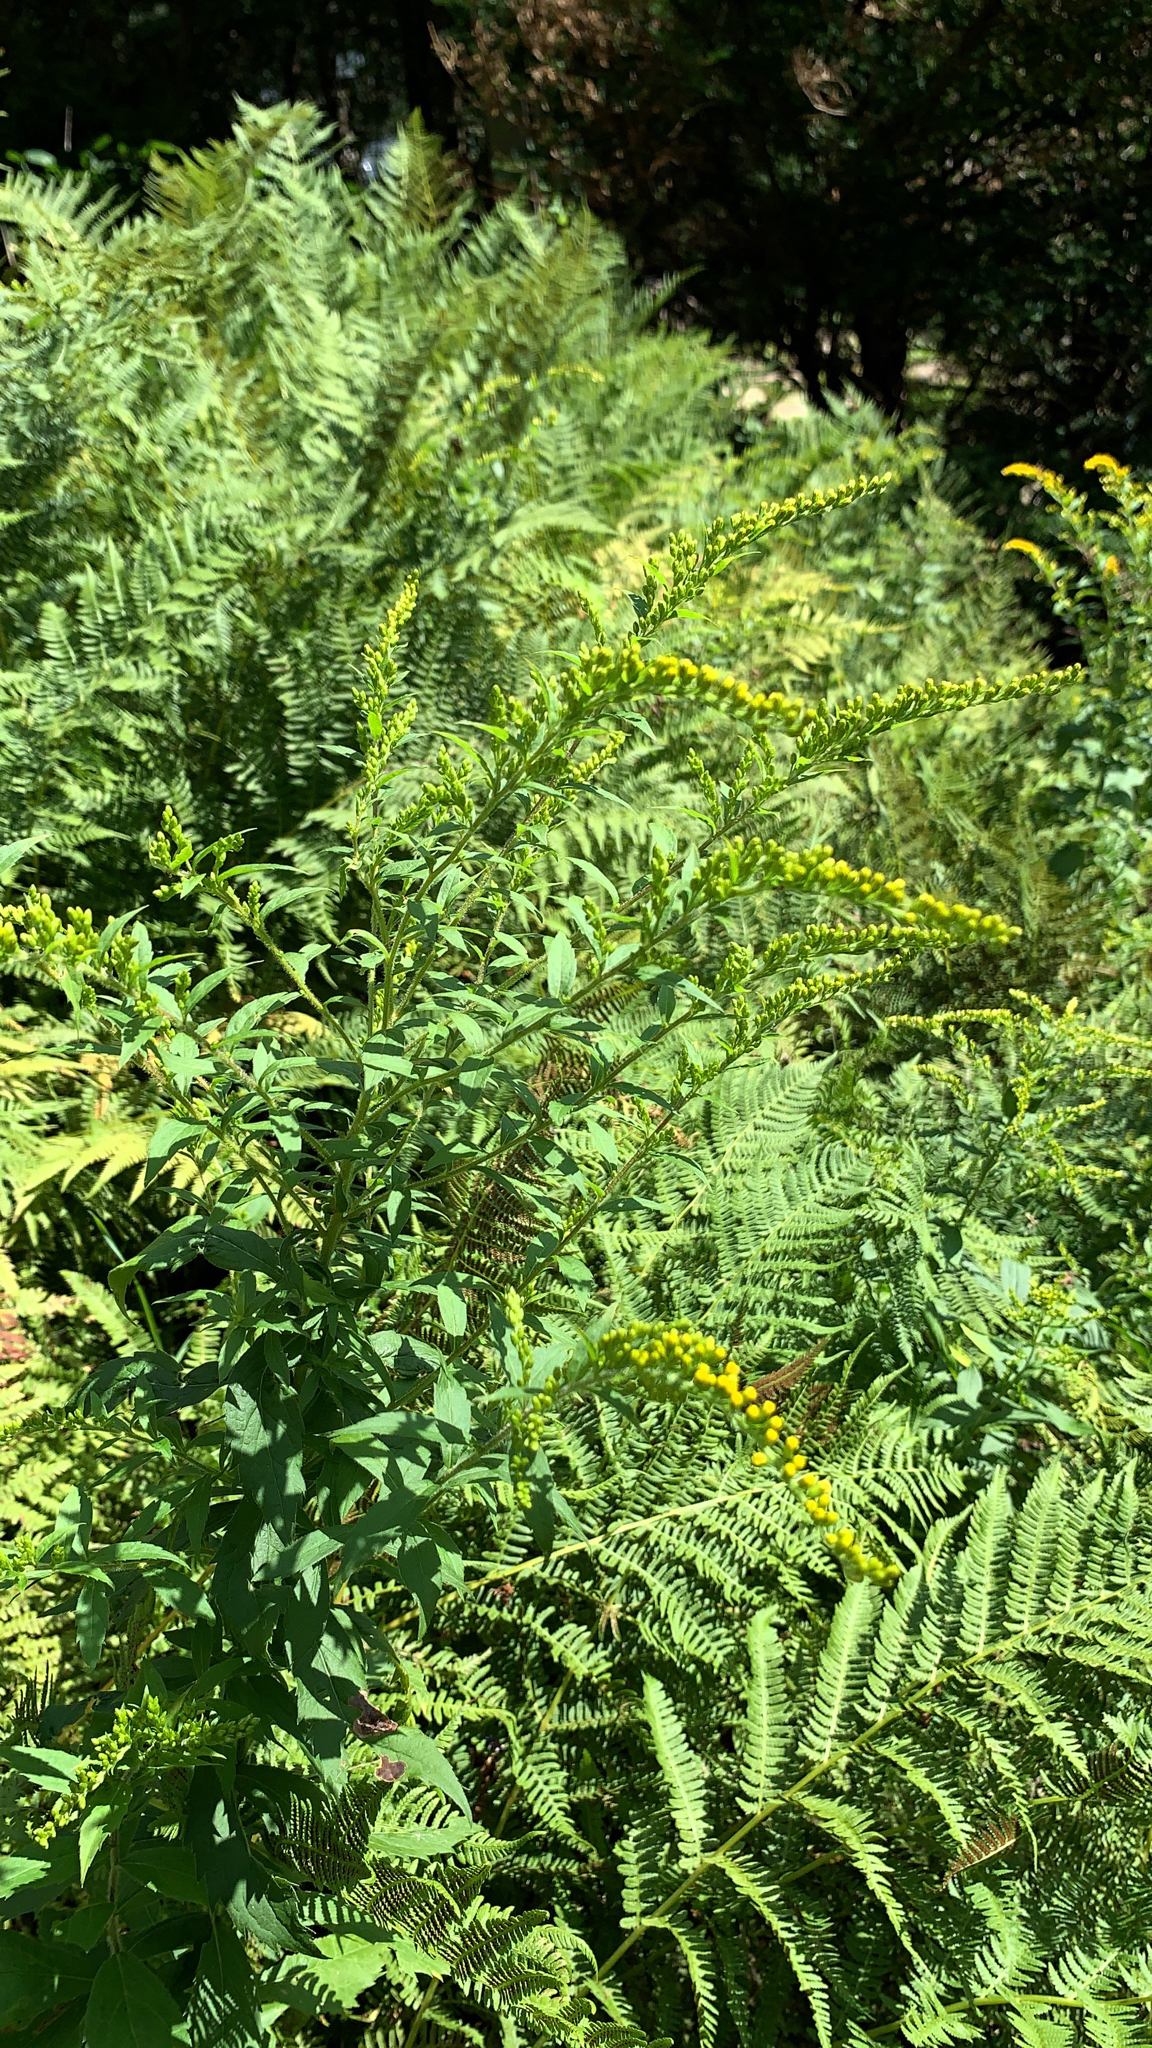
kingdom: Plantae
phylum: Tracheophyta
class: Magnoliopsida
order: Asterales
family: Asteraceae
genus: Solidago
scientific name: Solidago rugosa
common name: Rough-stemmed goldenrod
